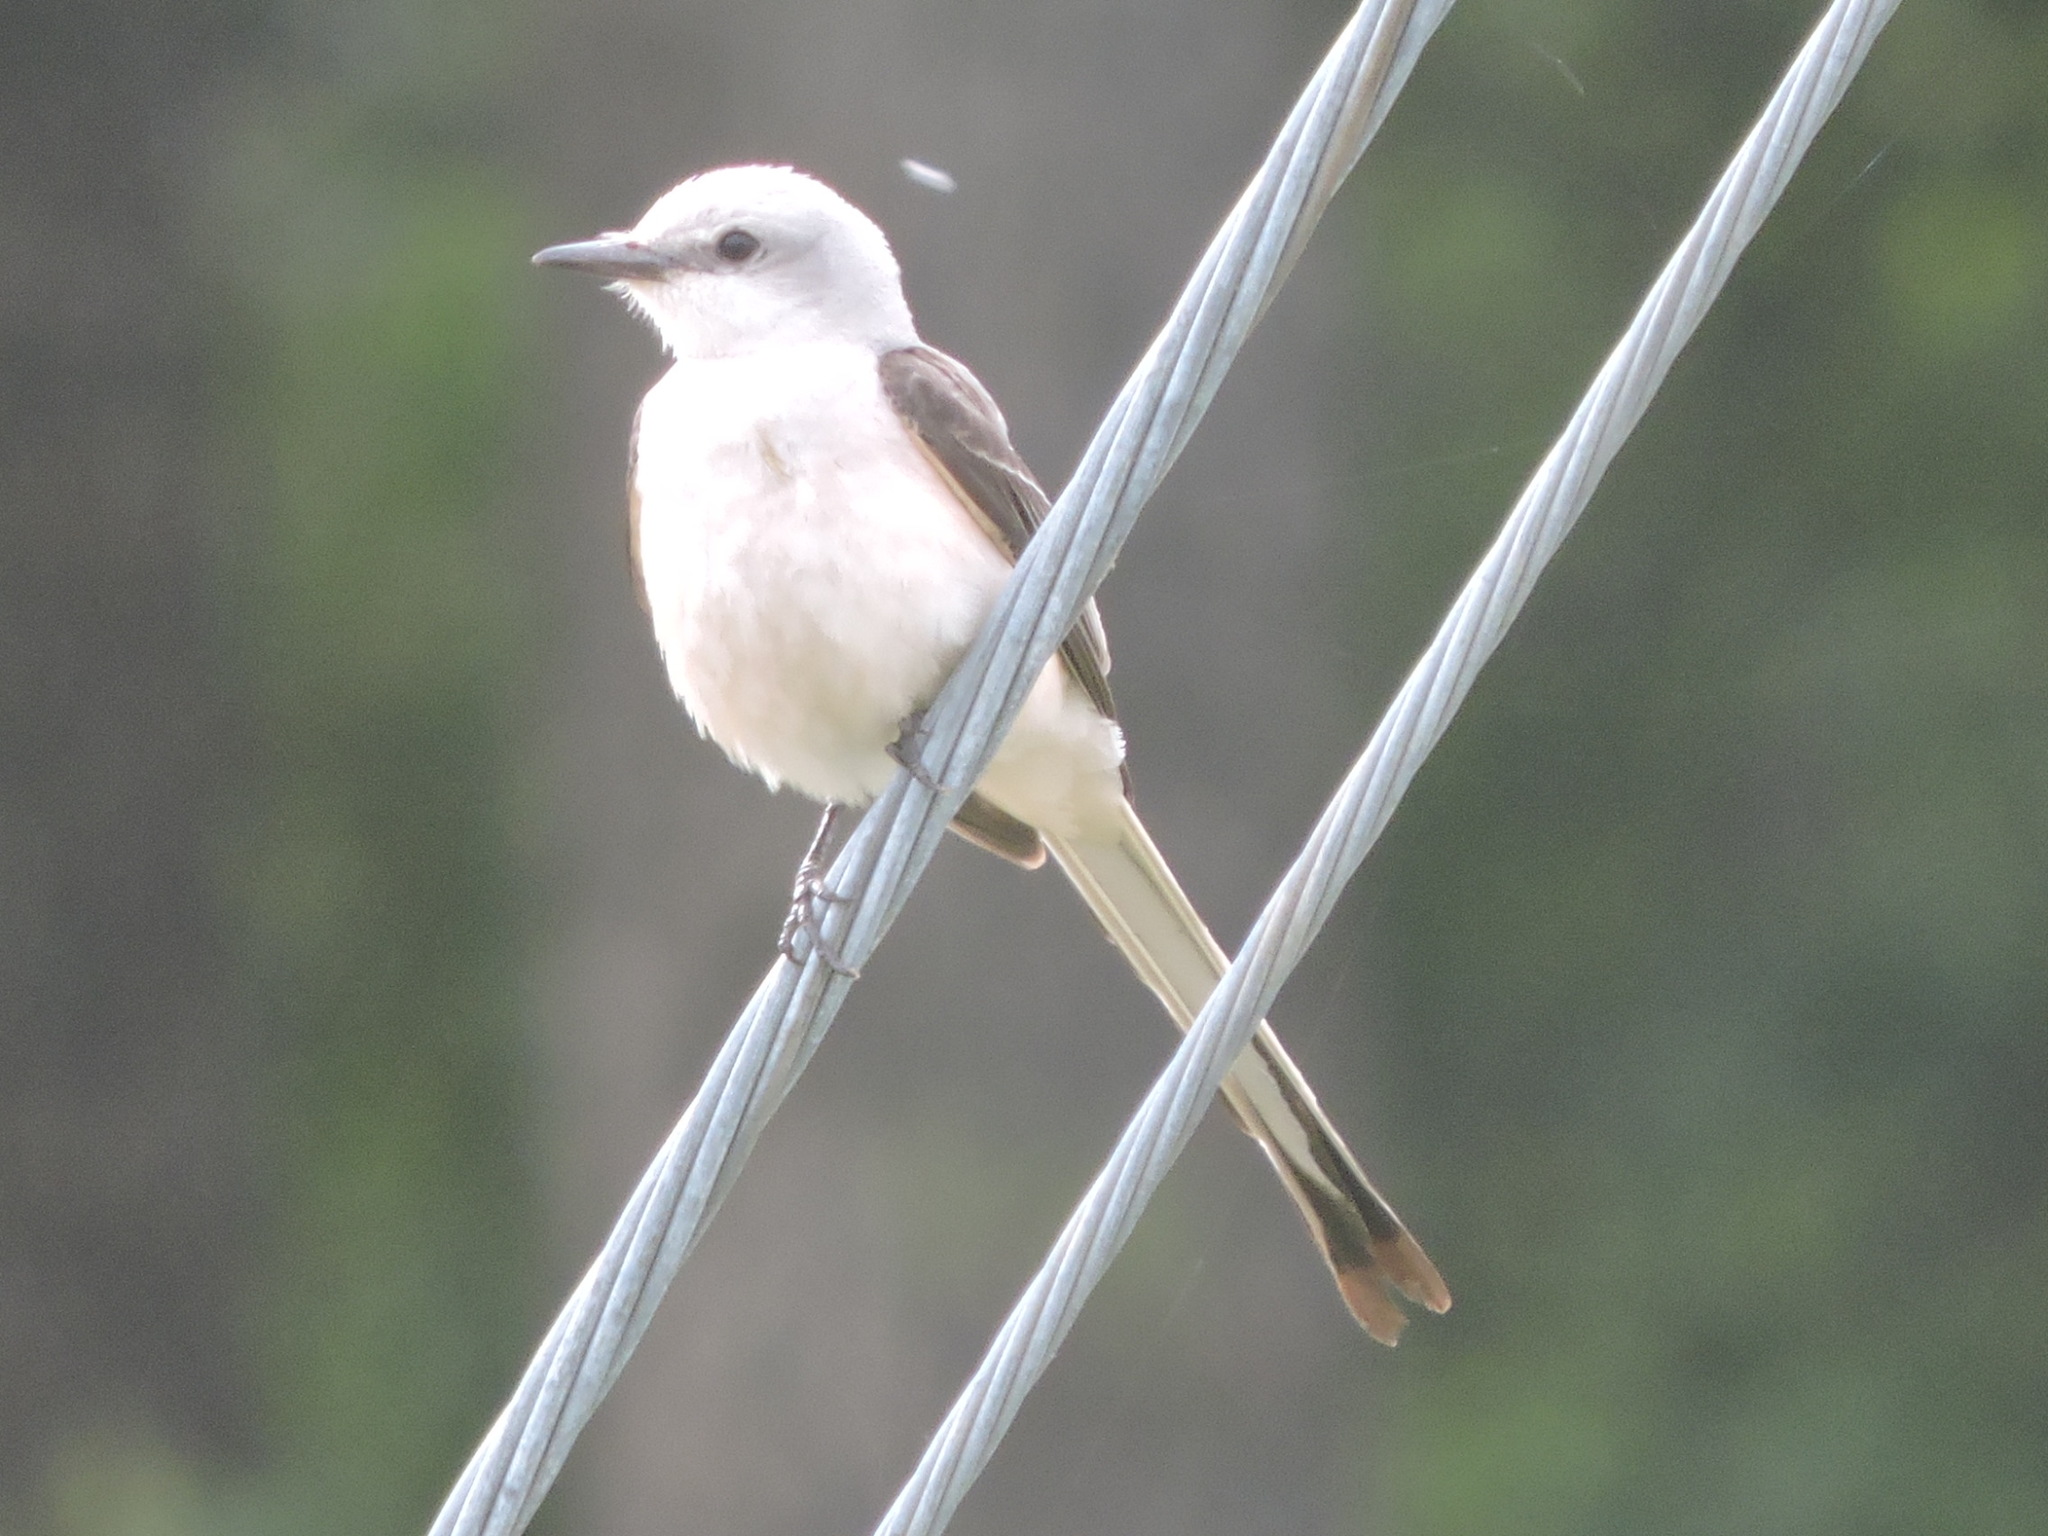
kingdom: Animalia
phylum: Chordata
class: Aves
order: Passeriformes
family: Tyrannidae
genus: Tyrannus
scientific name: Tyrannus forficatus
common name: Scissor-tailed flycatcher
